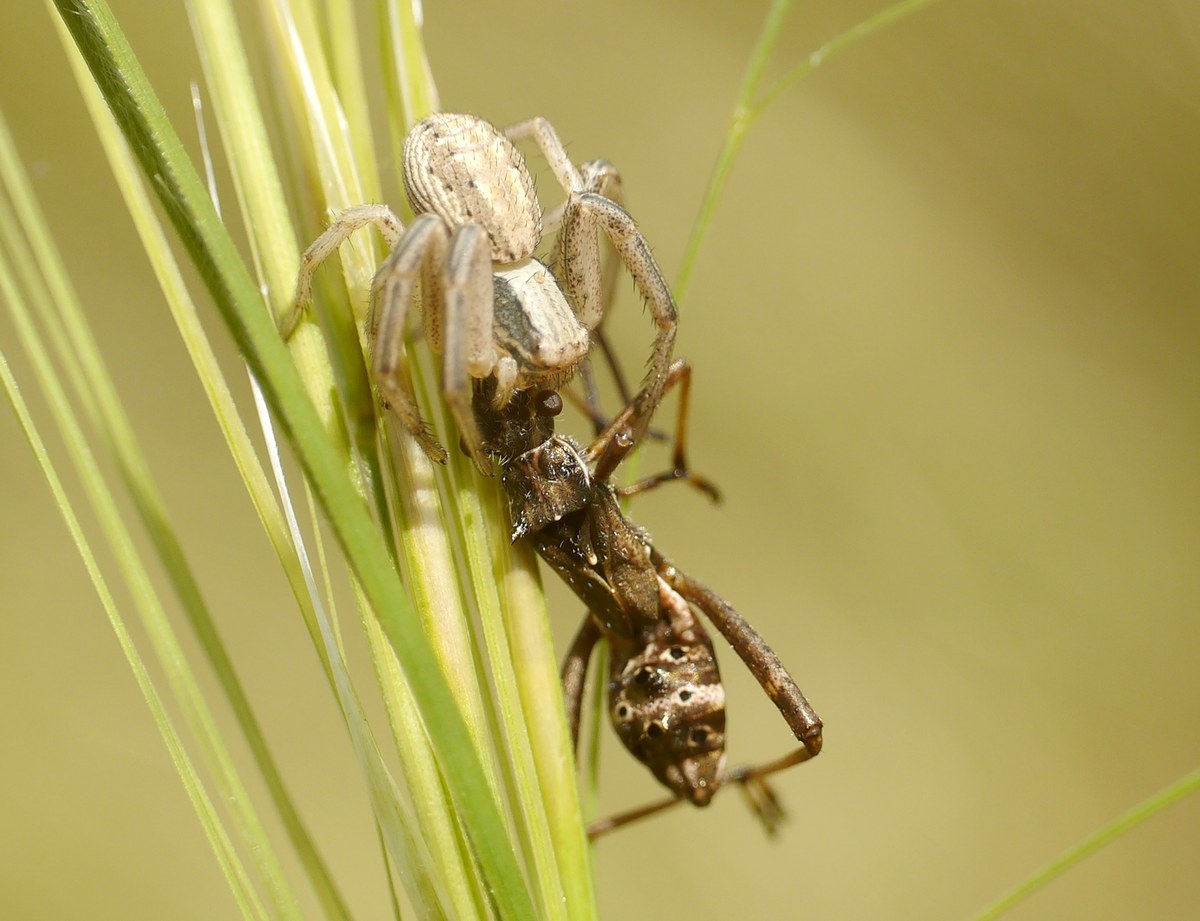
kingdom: Animalia
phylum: Arthropoda
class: Insecta
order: Hemiptera
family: Alydidae
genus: Camptopus
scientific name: Camptopus lateralis
